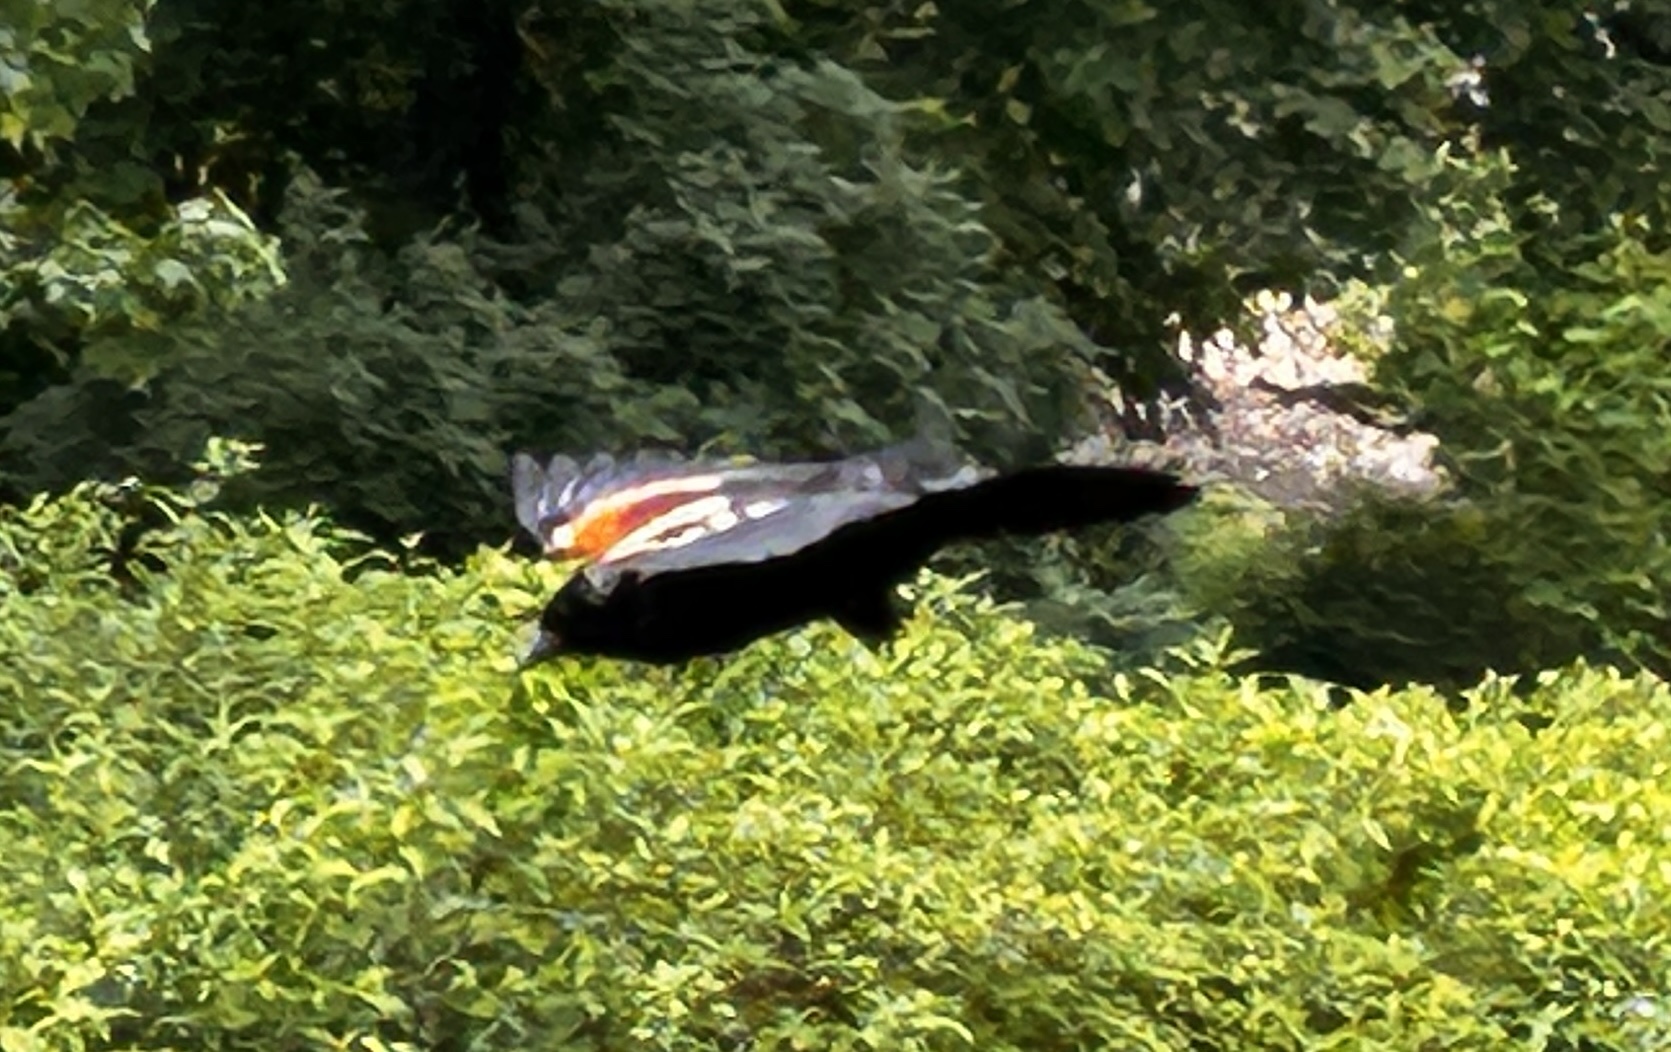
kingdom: Animalia
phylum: Chordata
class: Aves
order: Passeriformes
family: Icteridae
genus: Agelaius
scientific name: Agelaius phoeniceus
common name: Red-winged blackbird
